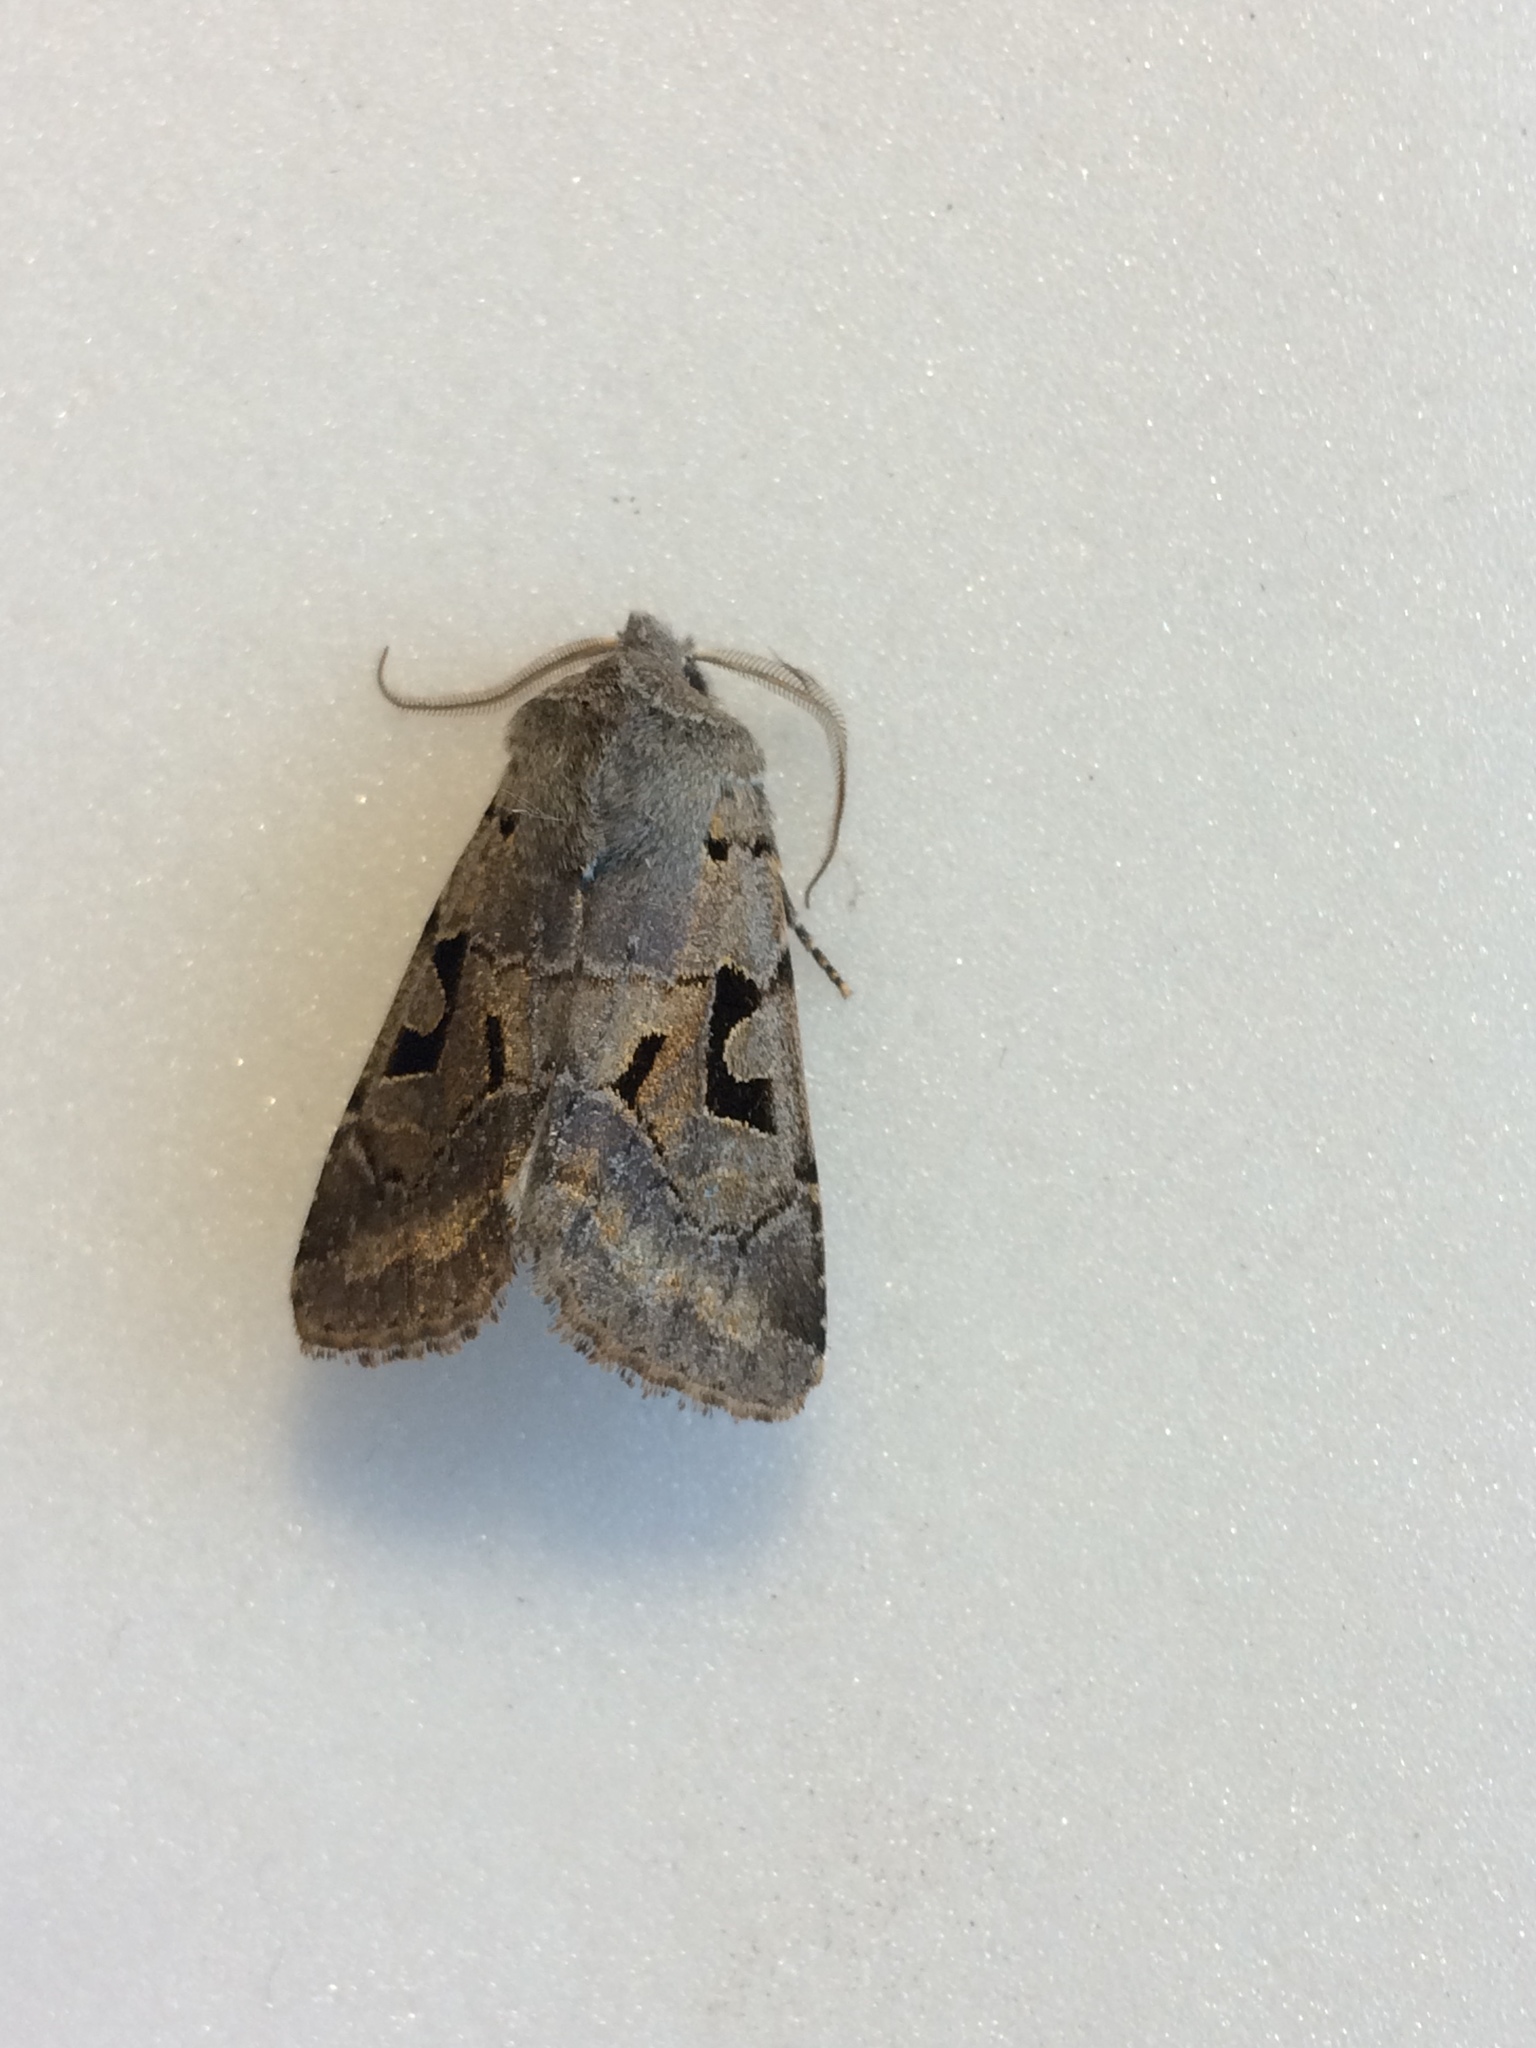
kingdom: Animalia
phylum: Arthropoda
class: Insecta
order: Lepidoptera
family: Noctuidae
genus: Orthosia
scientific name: Orthosia gothica
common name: Hebrew character
